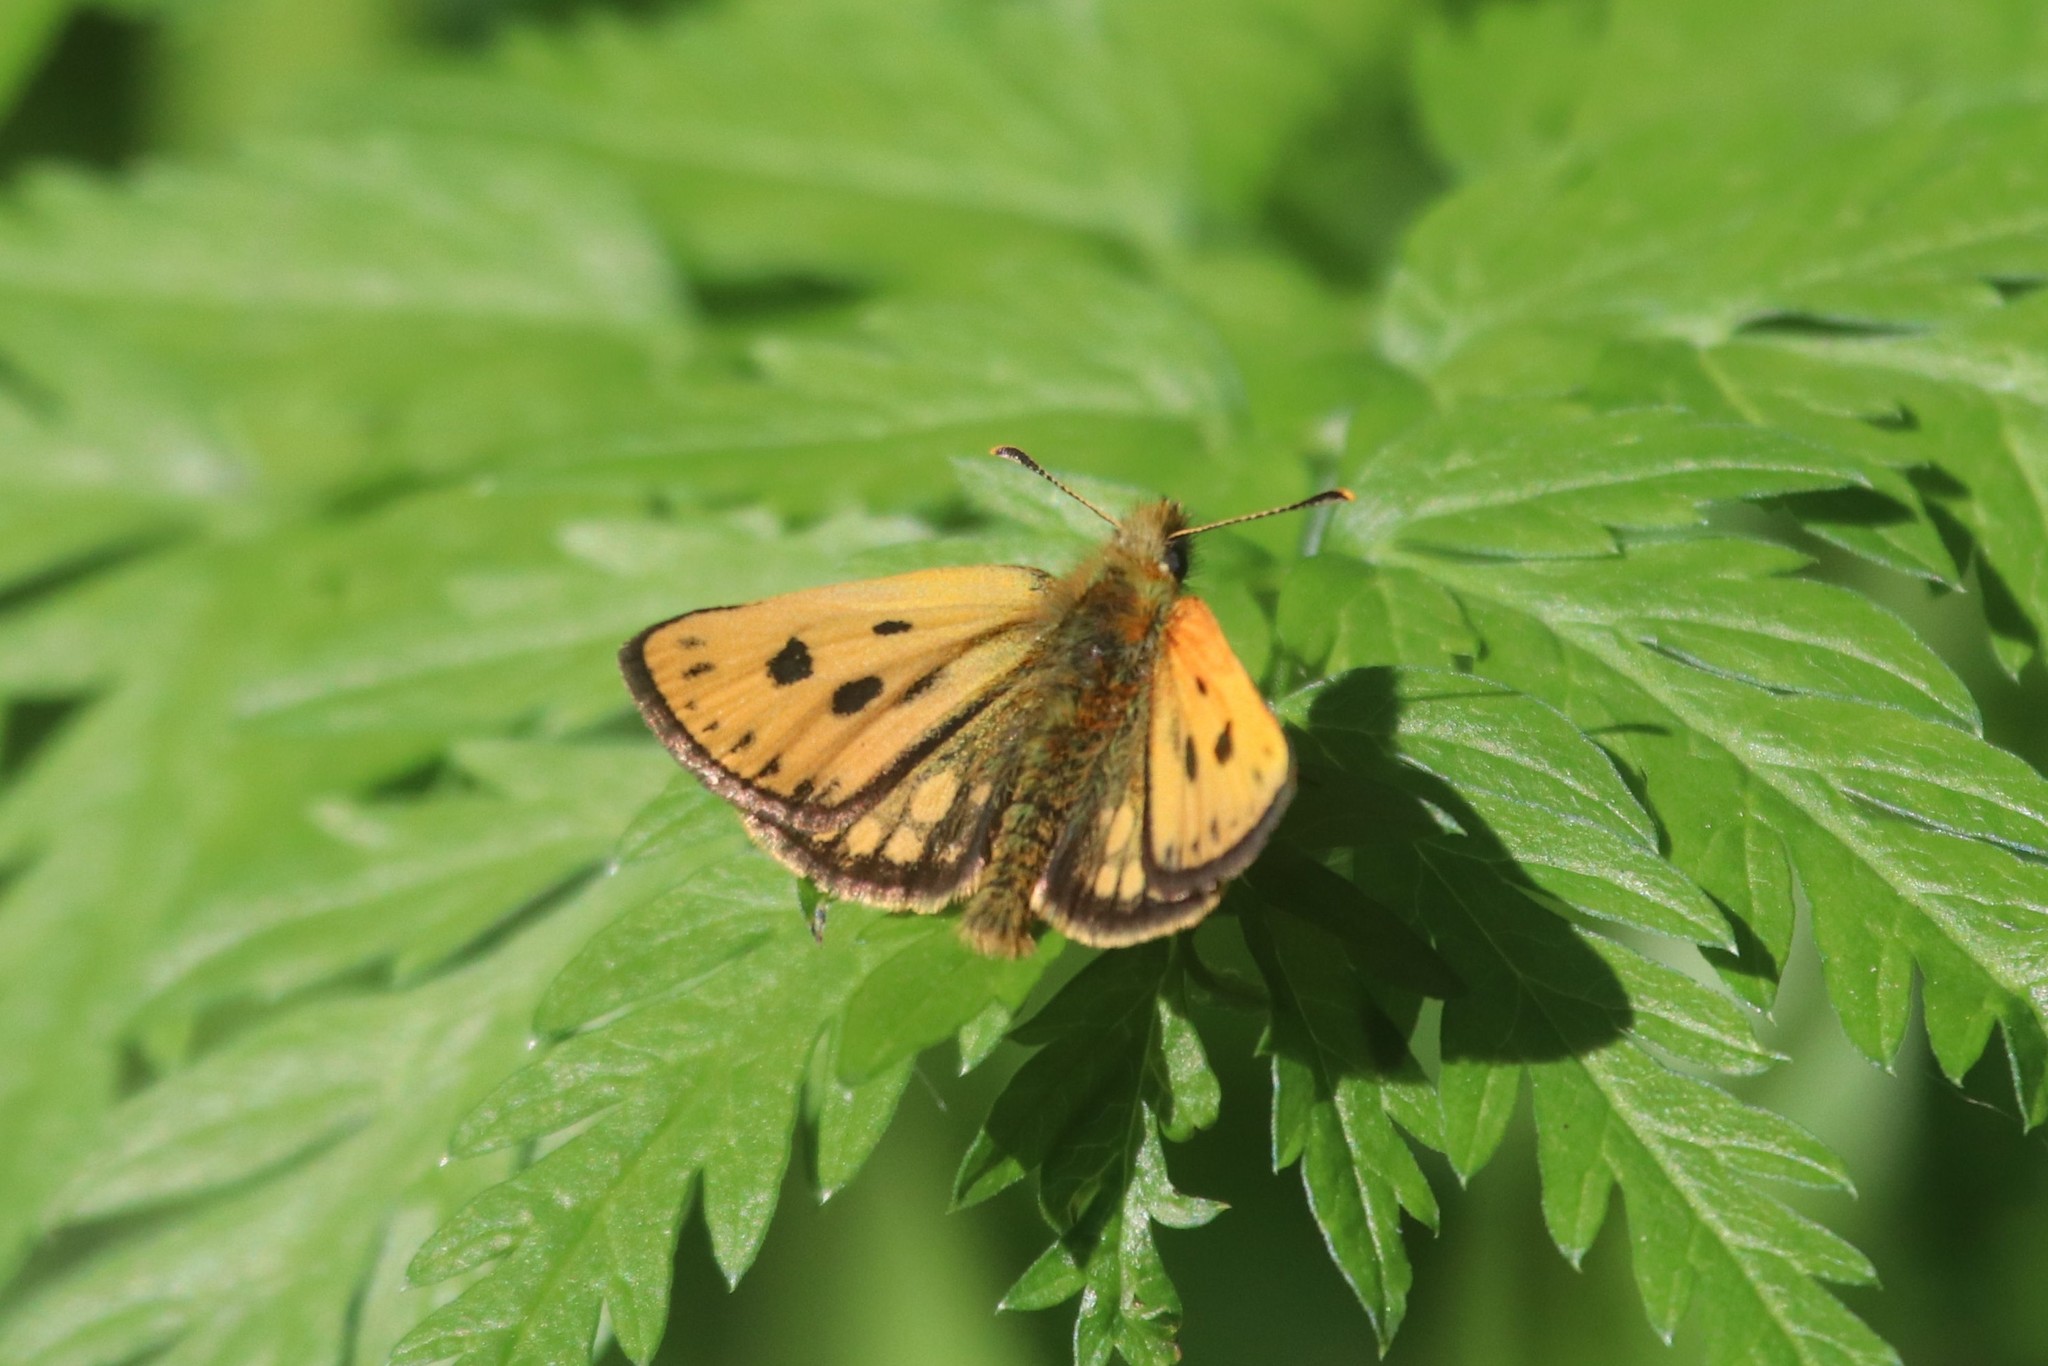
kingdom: Animalia
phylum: Arthropoda
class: Insecta
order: Lepidoptera
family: Hesperiidae
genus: Carterocephalus
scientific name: Carterocephalus silvicola
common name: Northern chequered skipper
